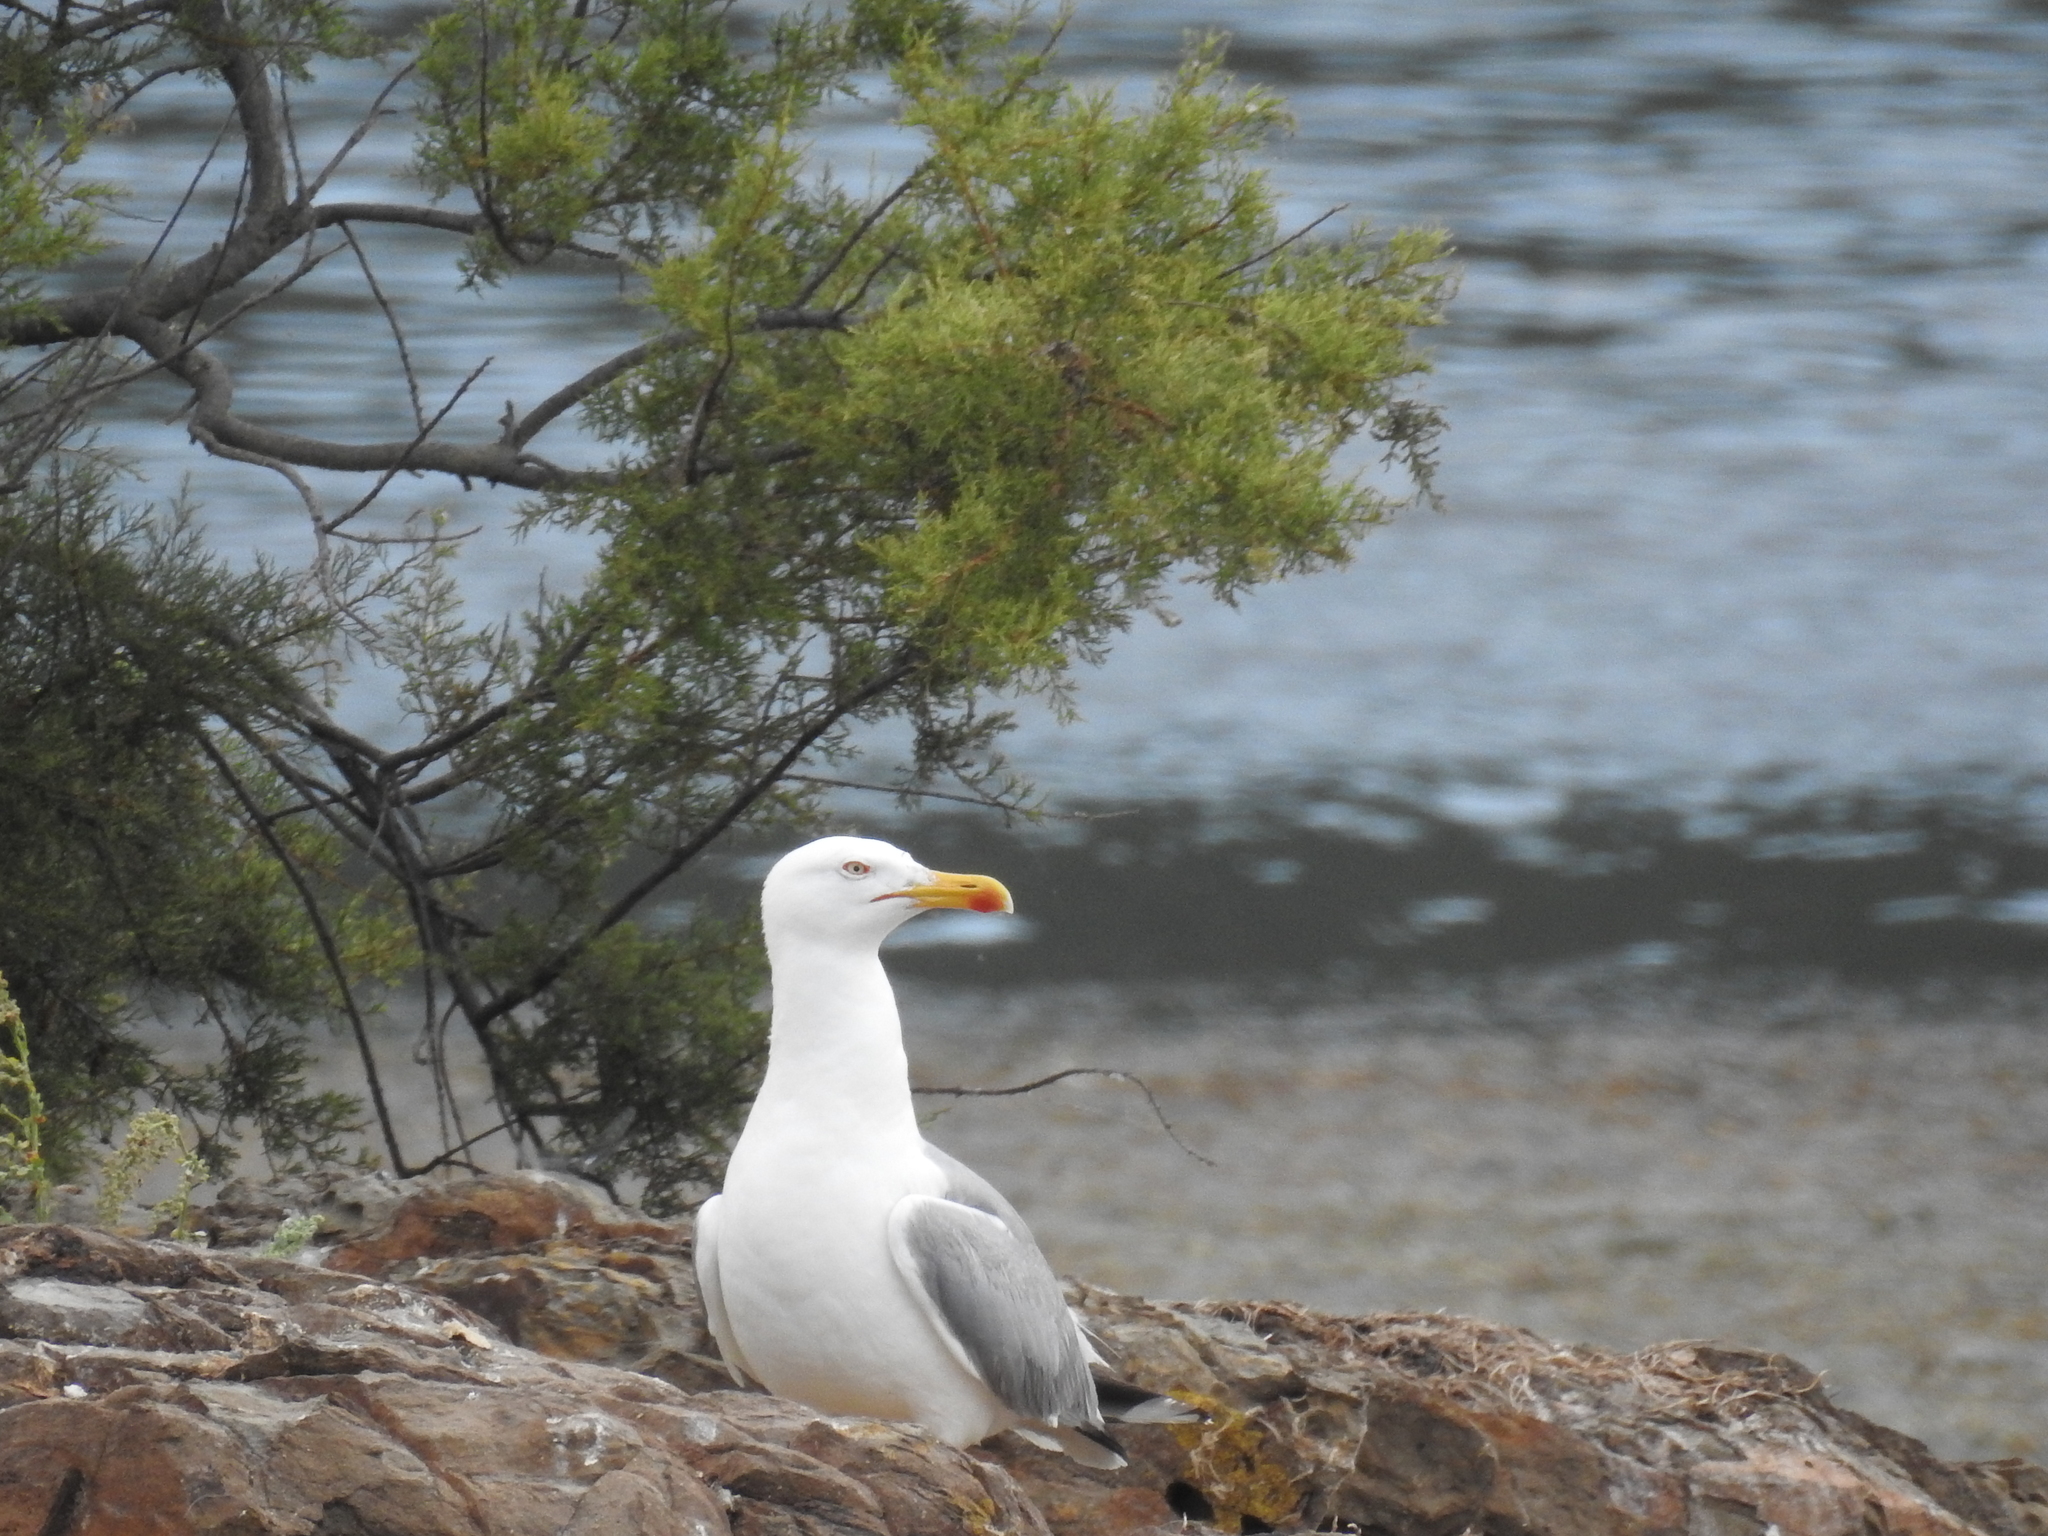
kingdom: Animalia
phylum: Chordata
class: Aves
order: Charadriiformes
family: Laridae
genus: Larus
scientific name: Larus michahellis
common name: Yellow-legged gull
